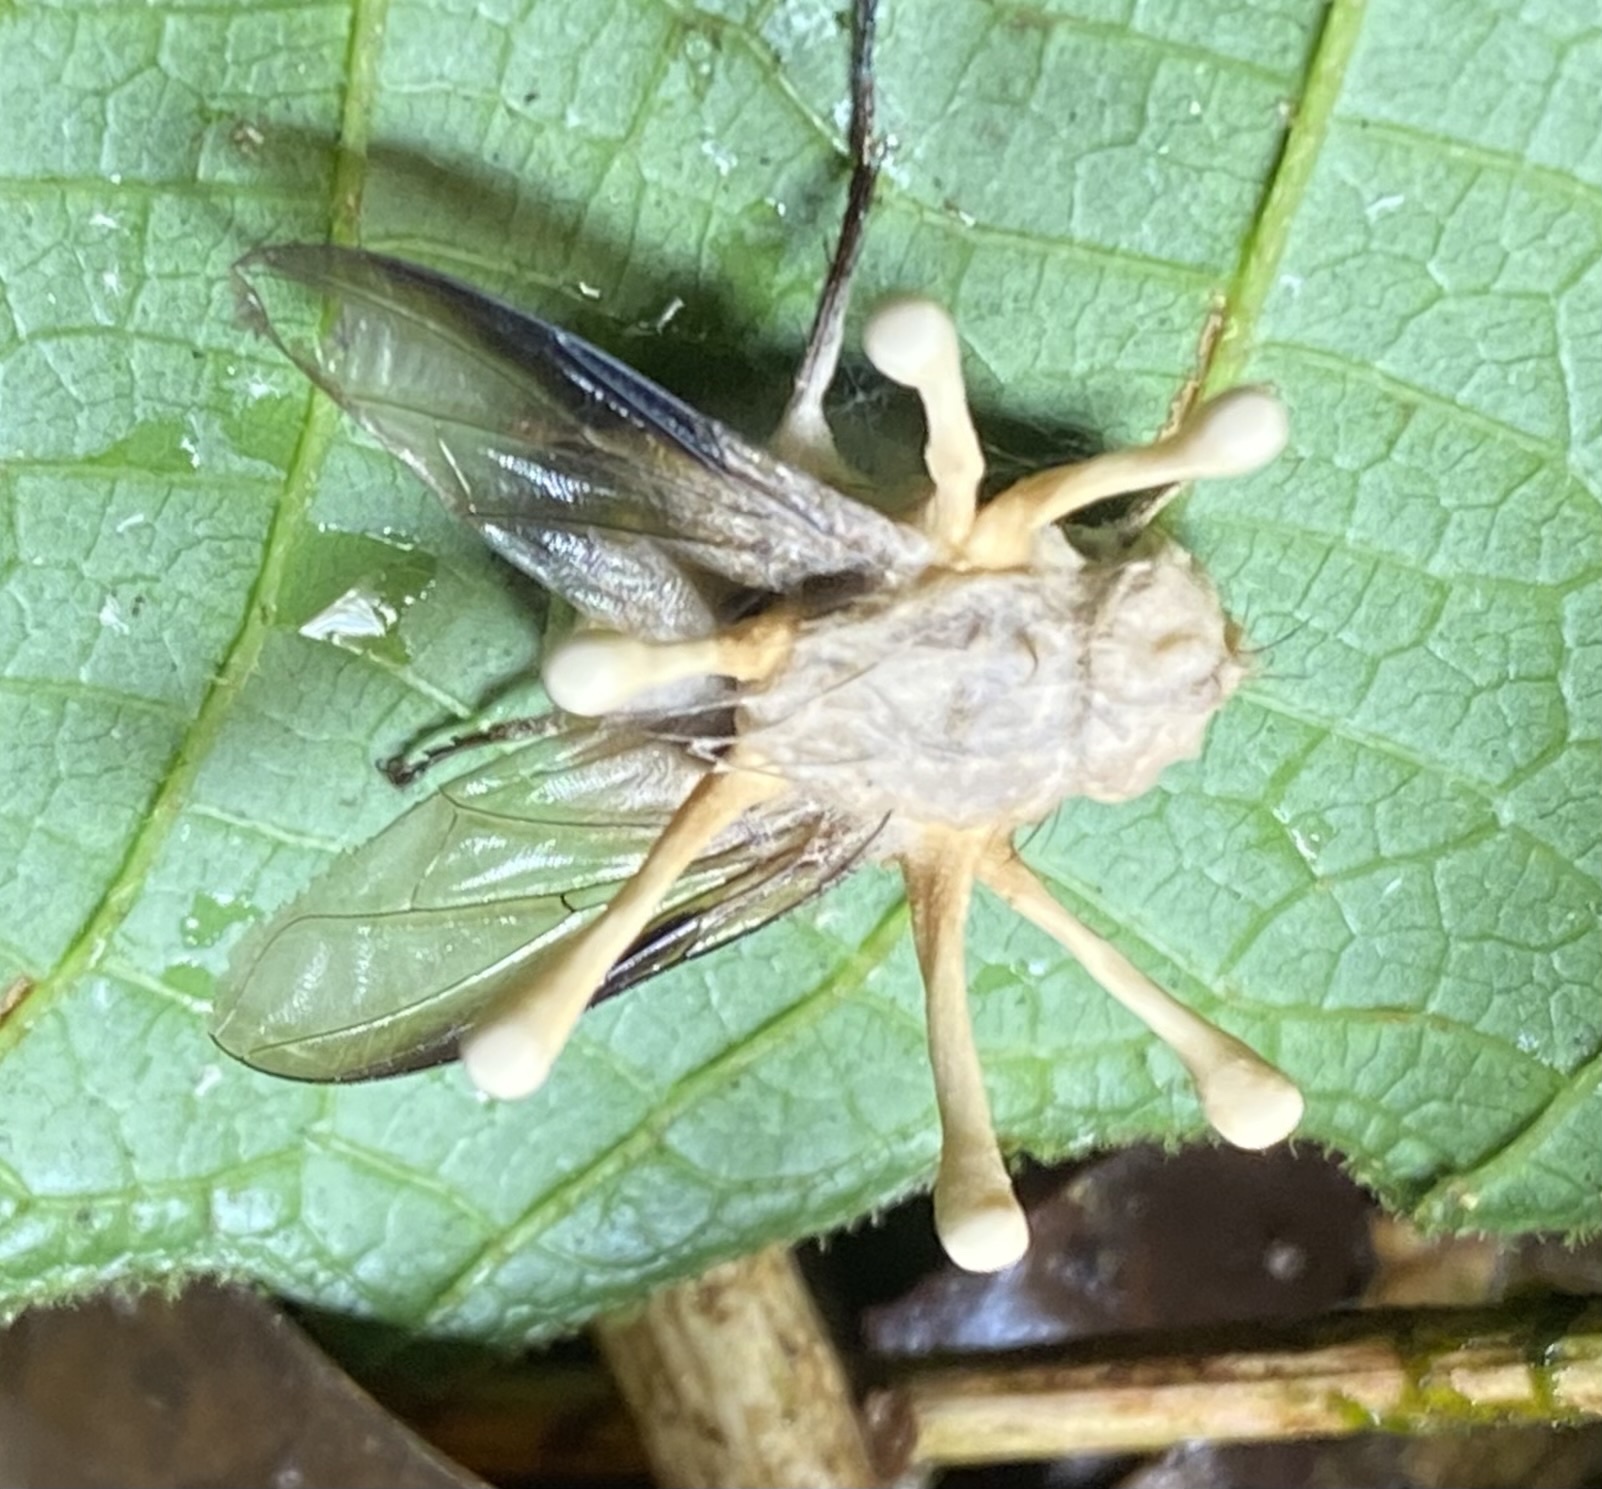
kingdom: Fungi
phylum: Ascomycota
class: Sordariomycetes
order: Hypocreales
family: Ophiocordycipitaceae
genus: Ophiocordyceps
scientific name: Ophiocordyceps dipterigena
